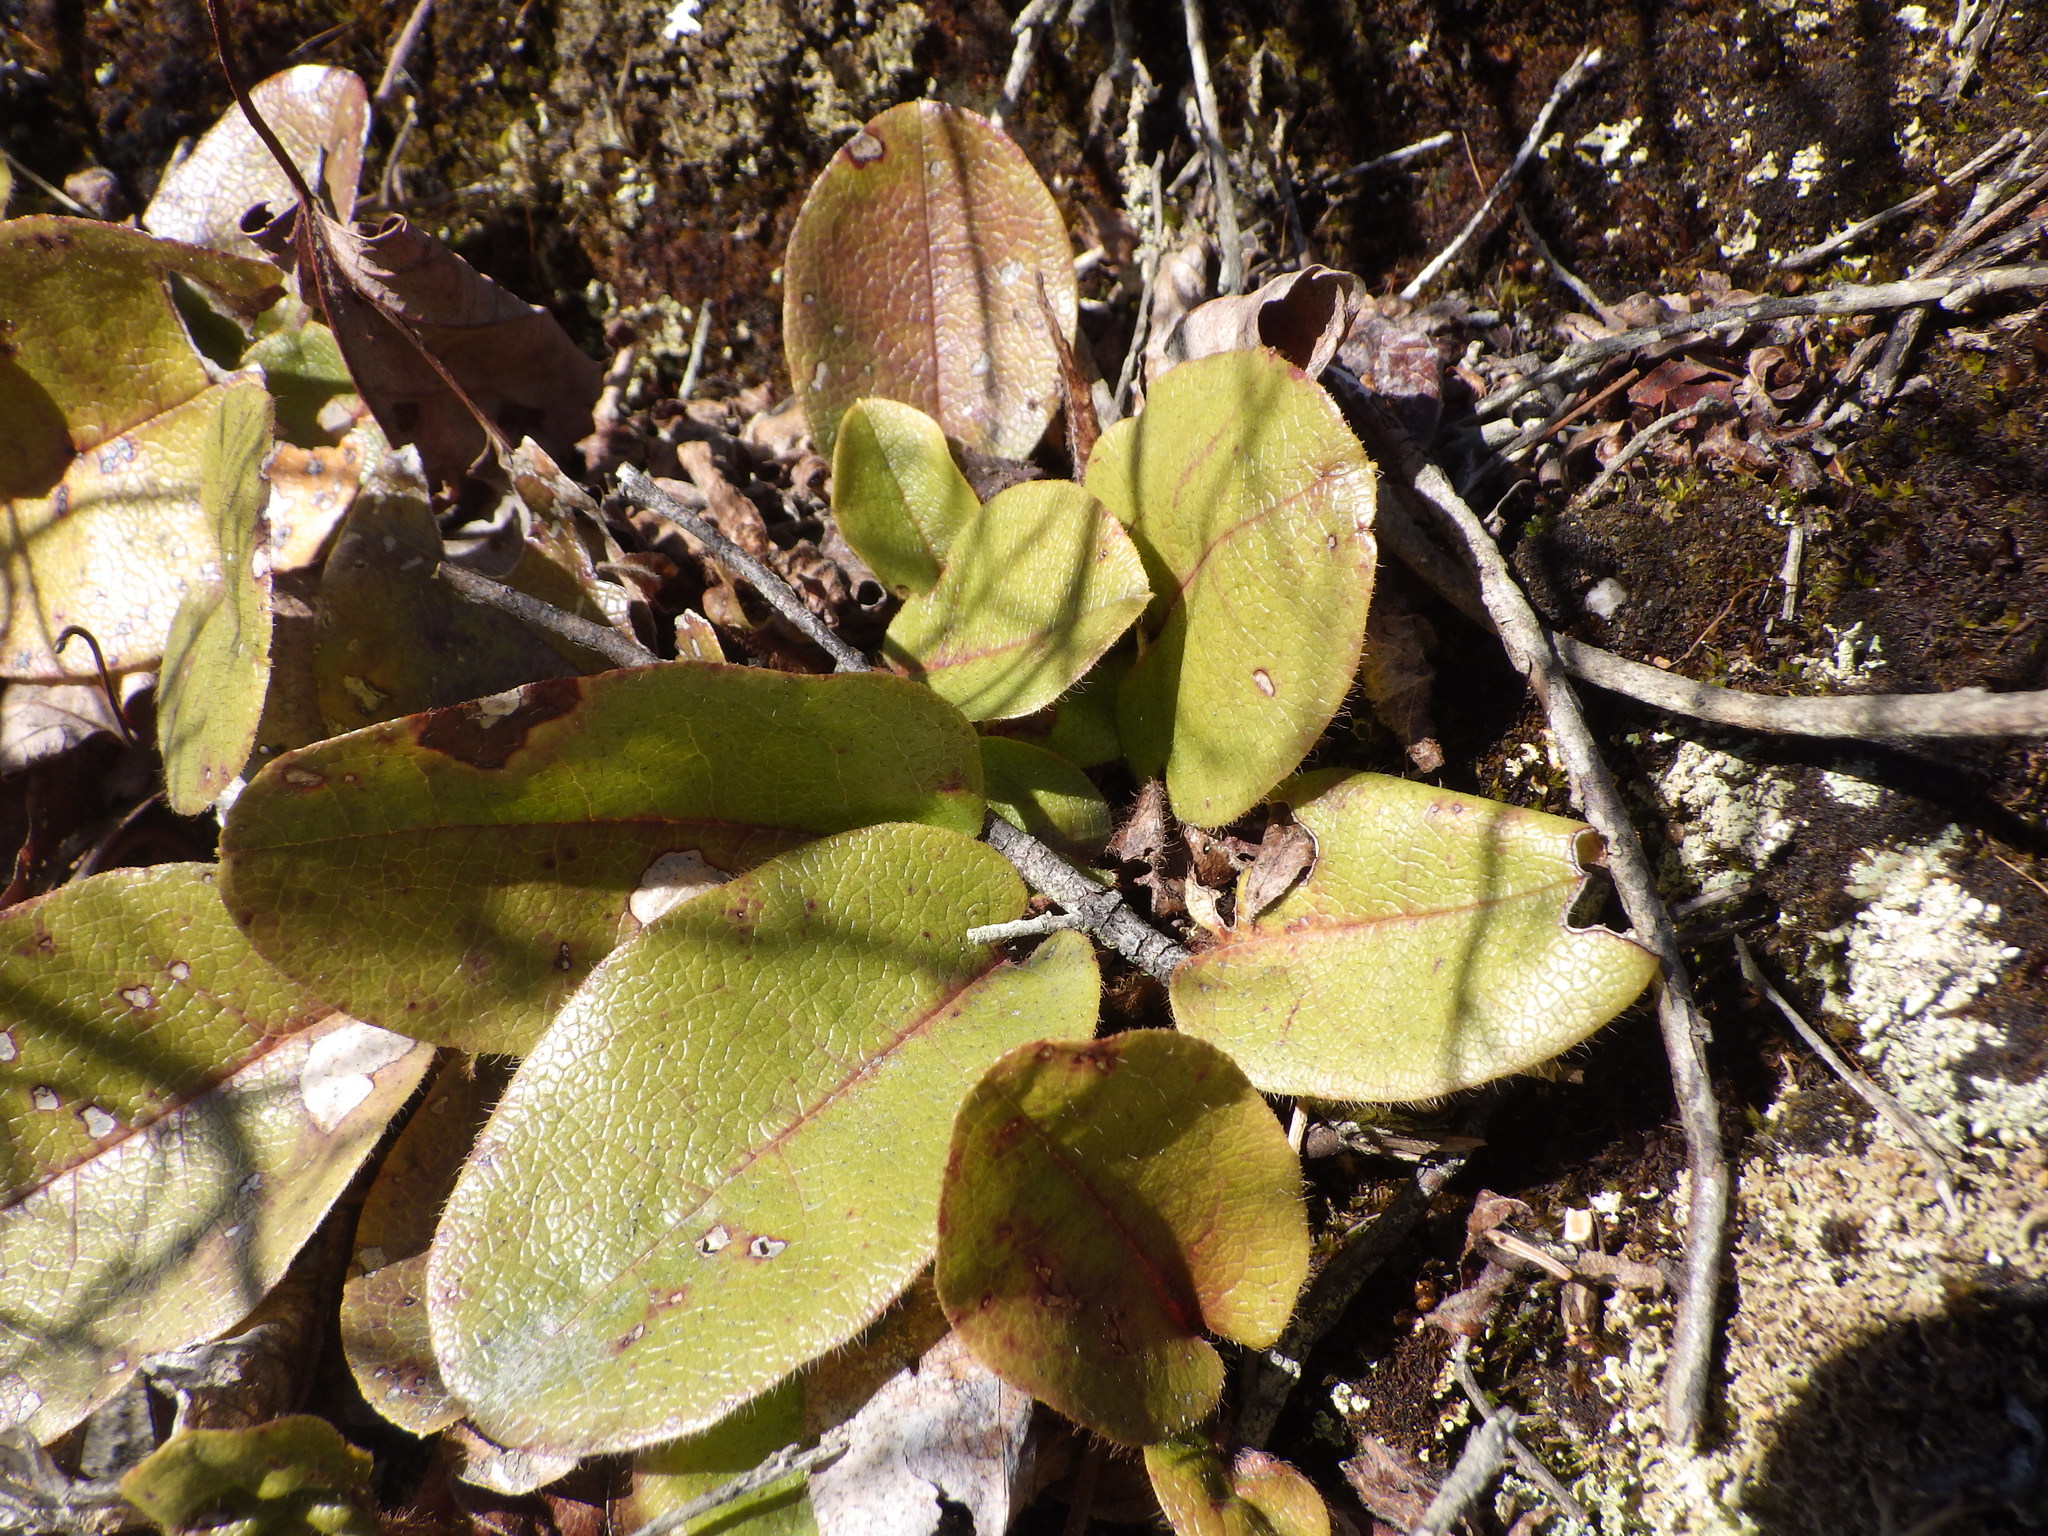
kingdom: Plantae
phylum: Tracheophyta
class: Magnoliopsida
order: Ericales
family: Ericaceae
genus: Epigaea
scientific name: Epigaea repens
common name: Gravelroot
